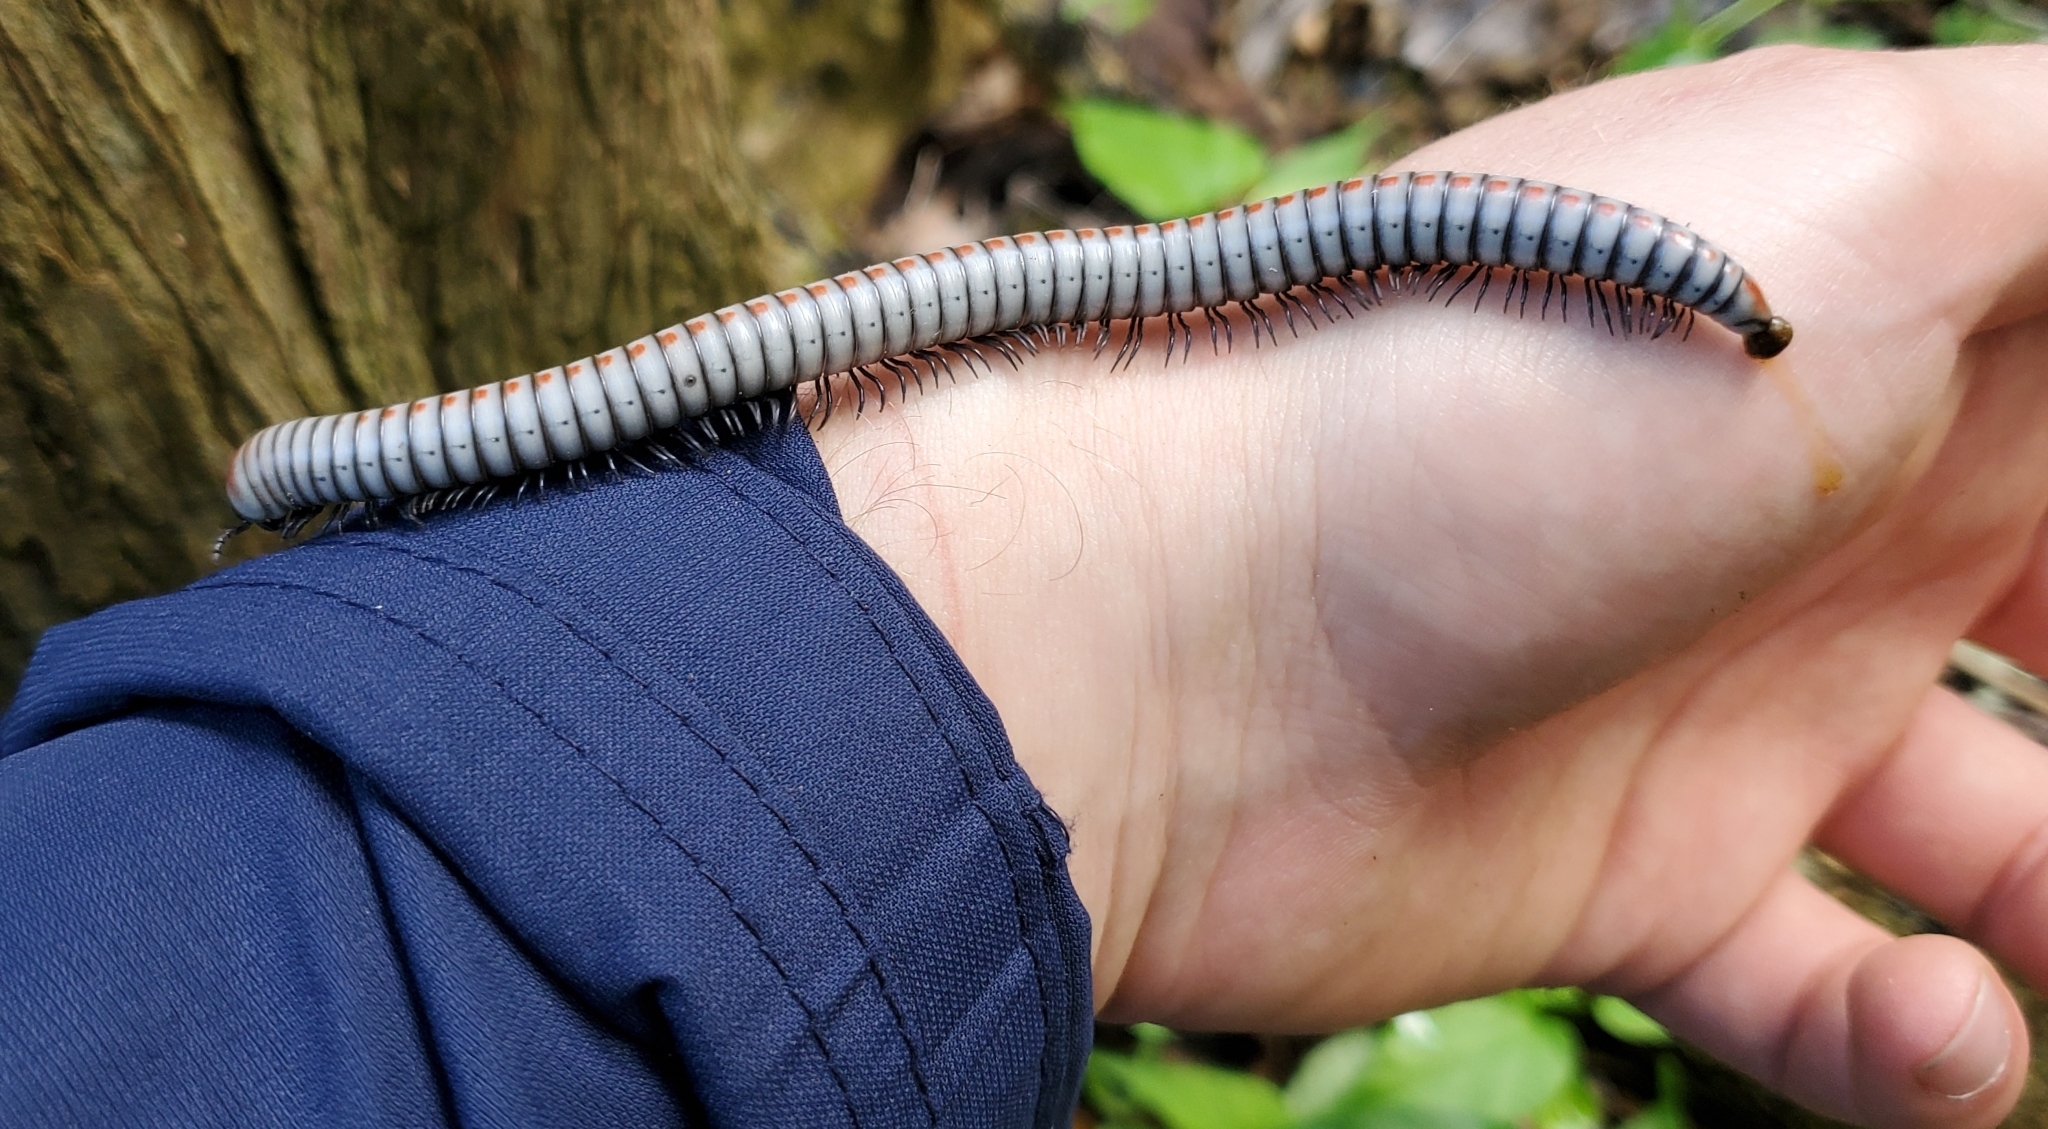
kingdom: Animalia
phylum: Arthropoda
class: Diplopoda
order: Spirobolida
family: Rhinocricidae
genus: Anadenobolus
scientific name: Anadenobolus arboreus
